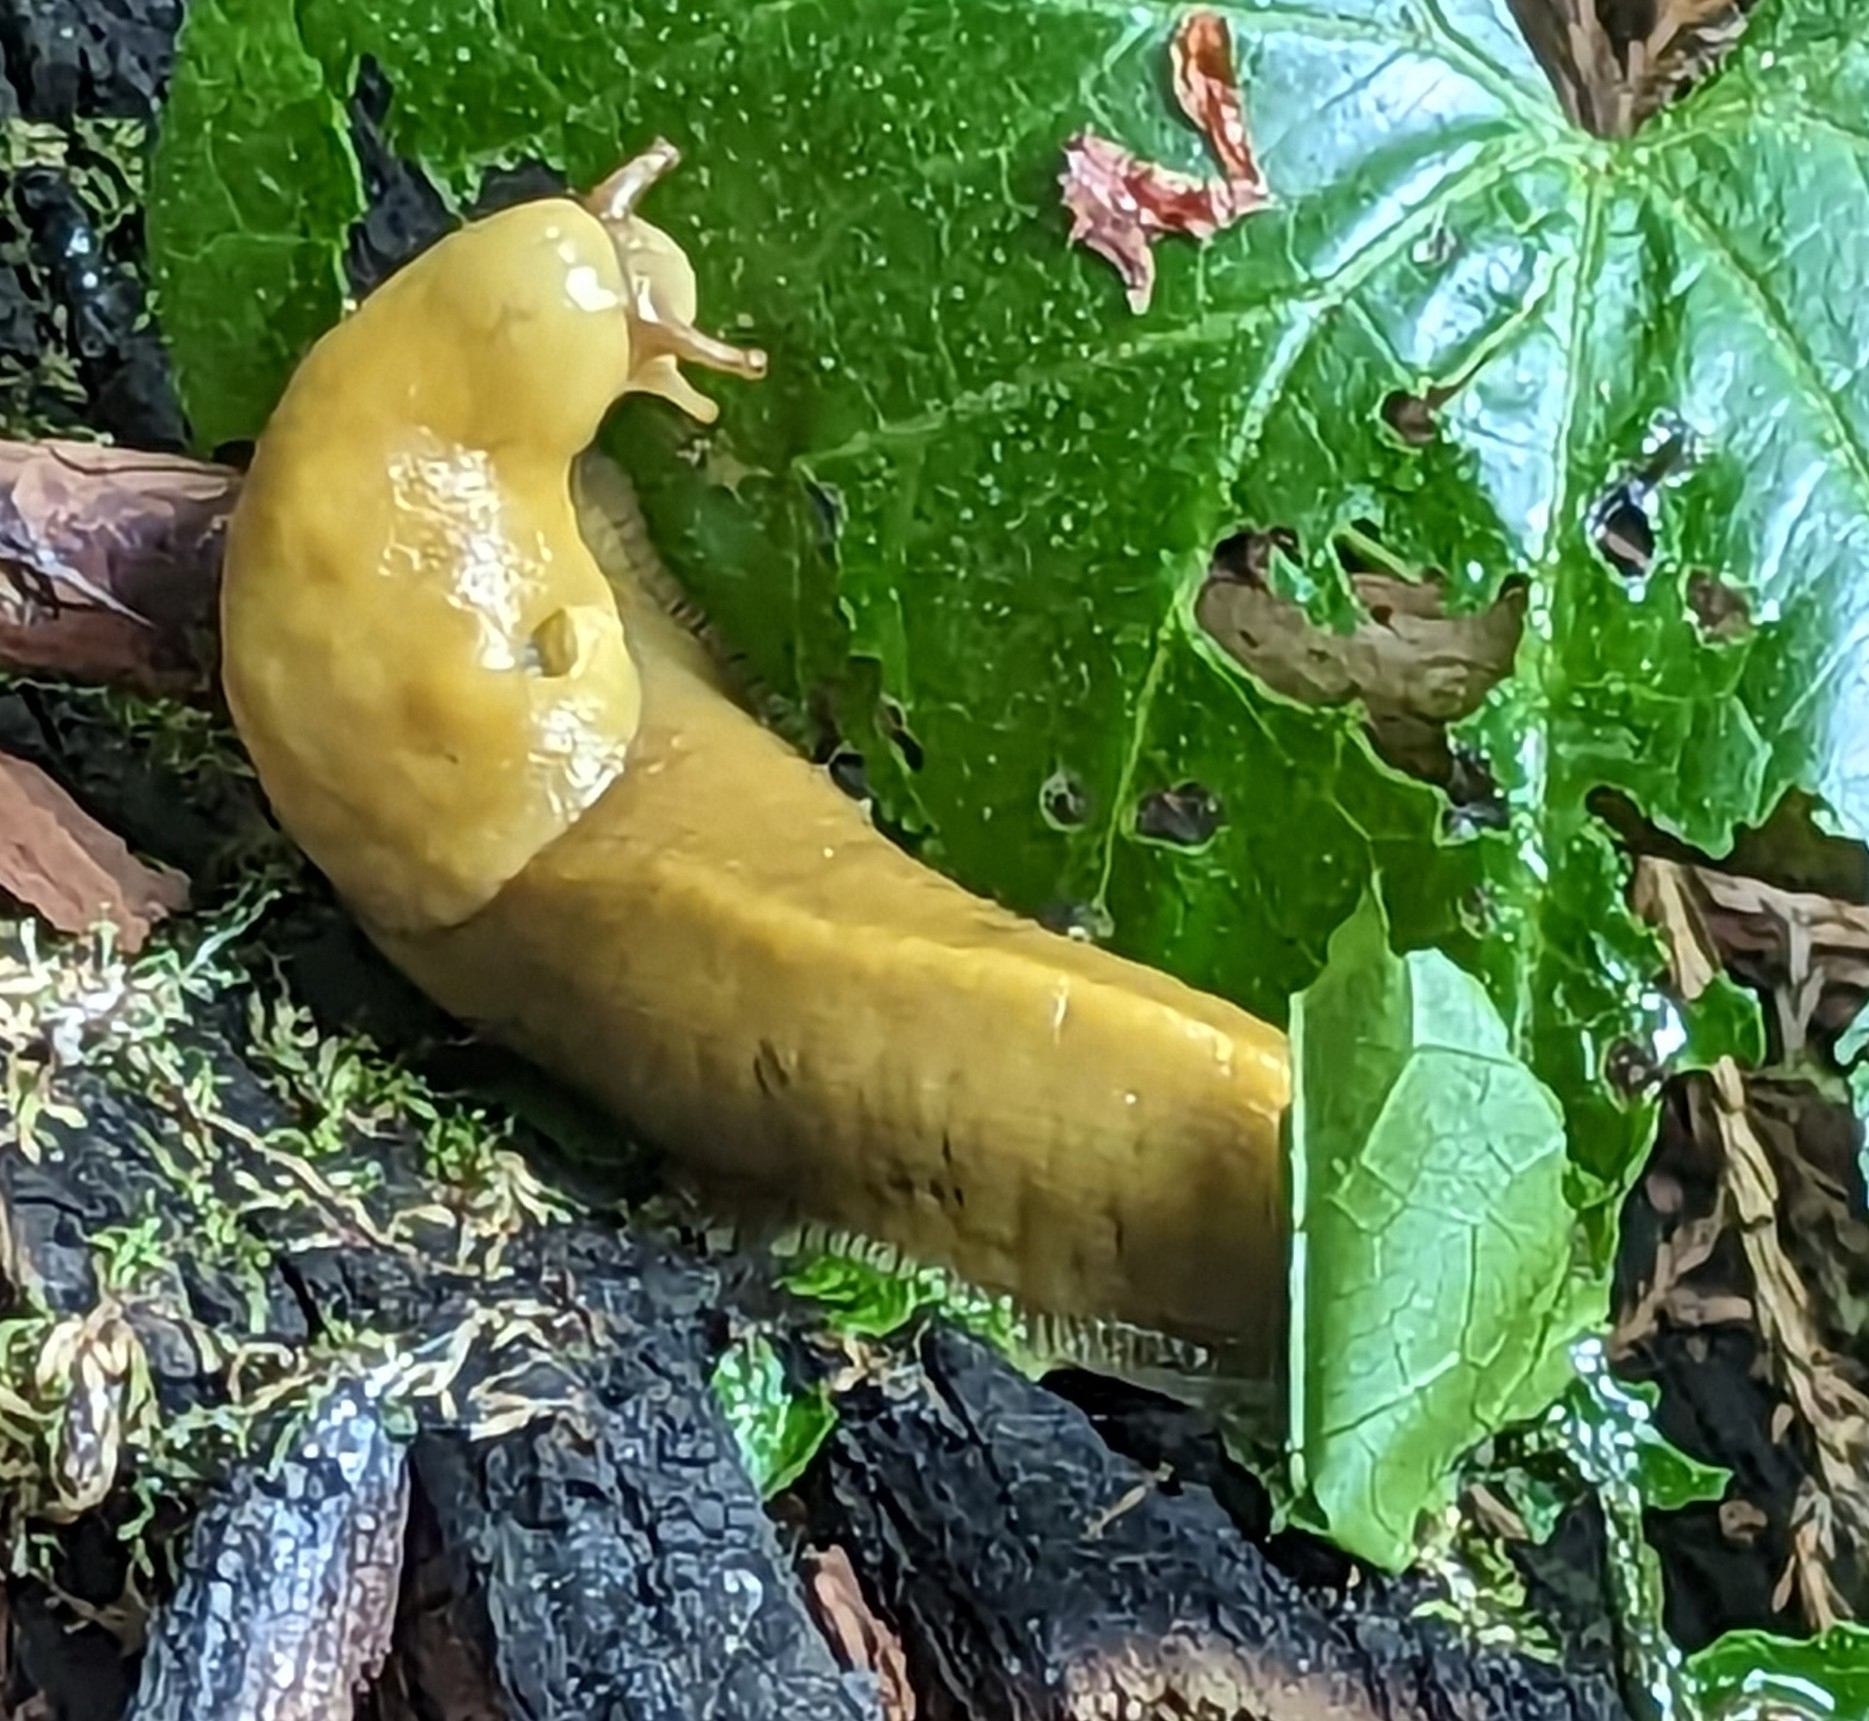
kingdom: Animalia
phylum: Mollusca
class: Gastropoda
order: Stylommatophora
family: Ariolimacidae
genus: Ariolimax
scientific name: Ariolimax buttoni
